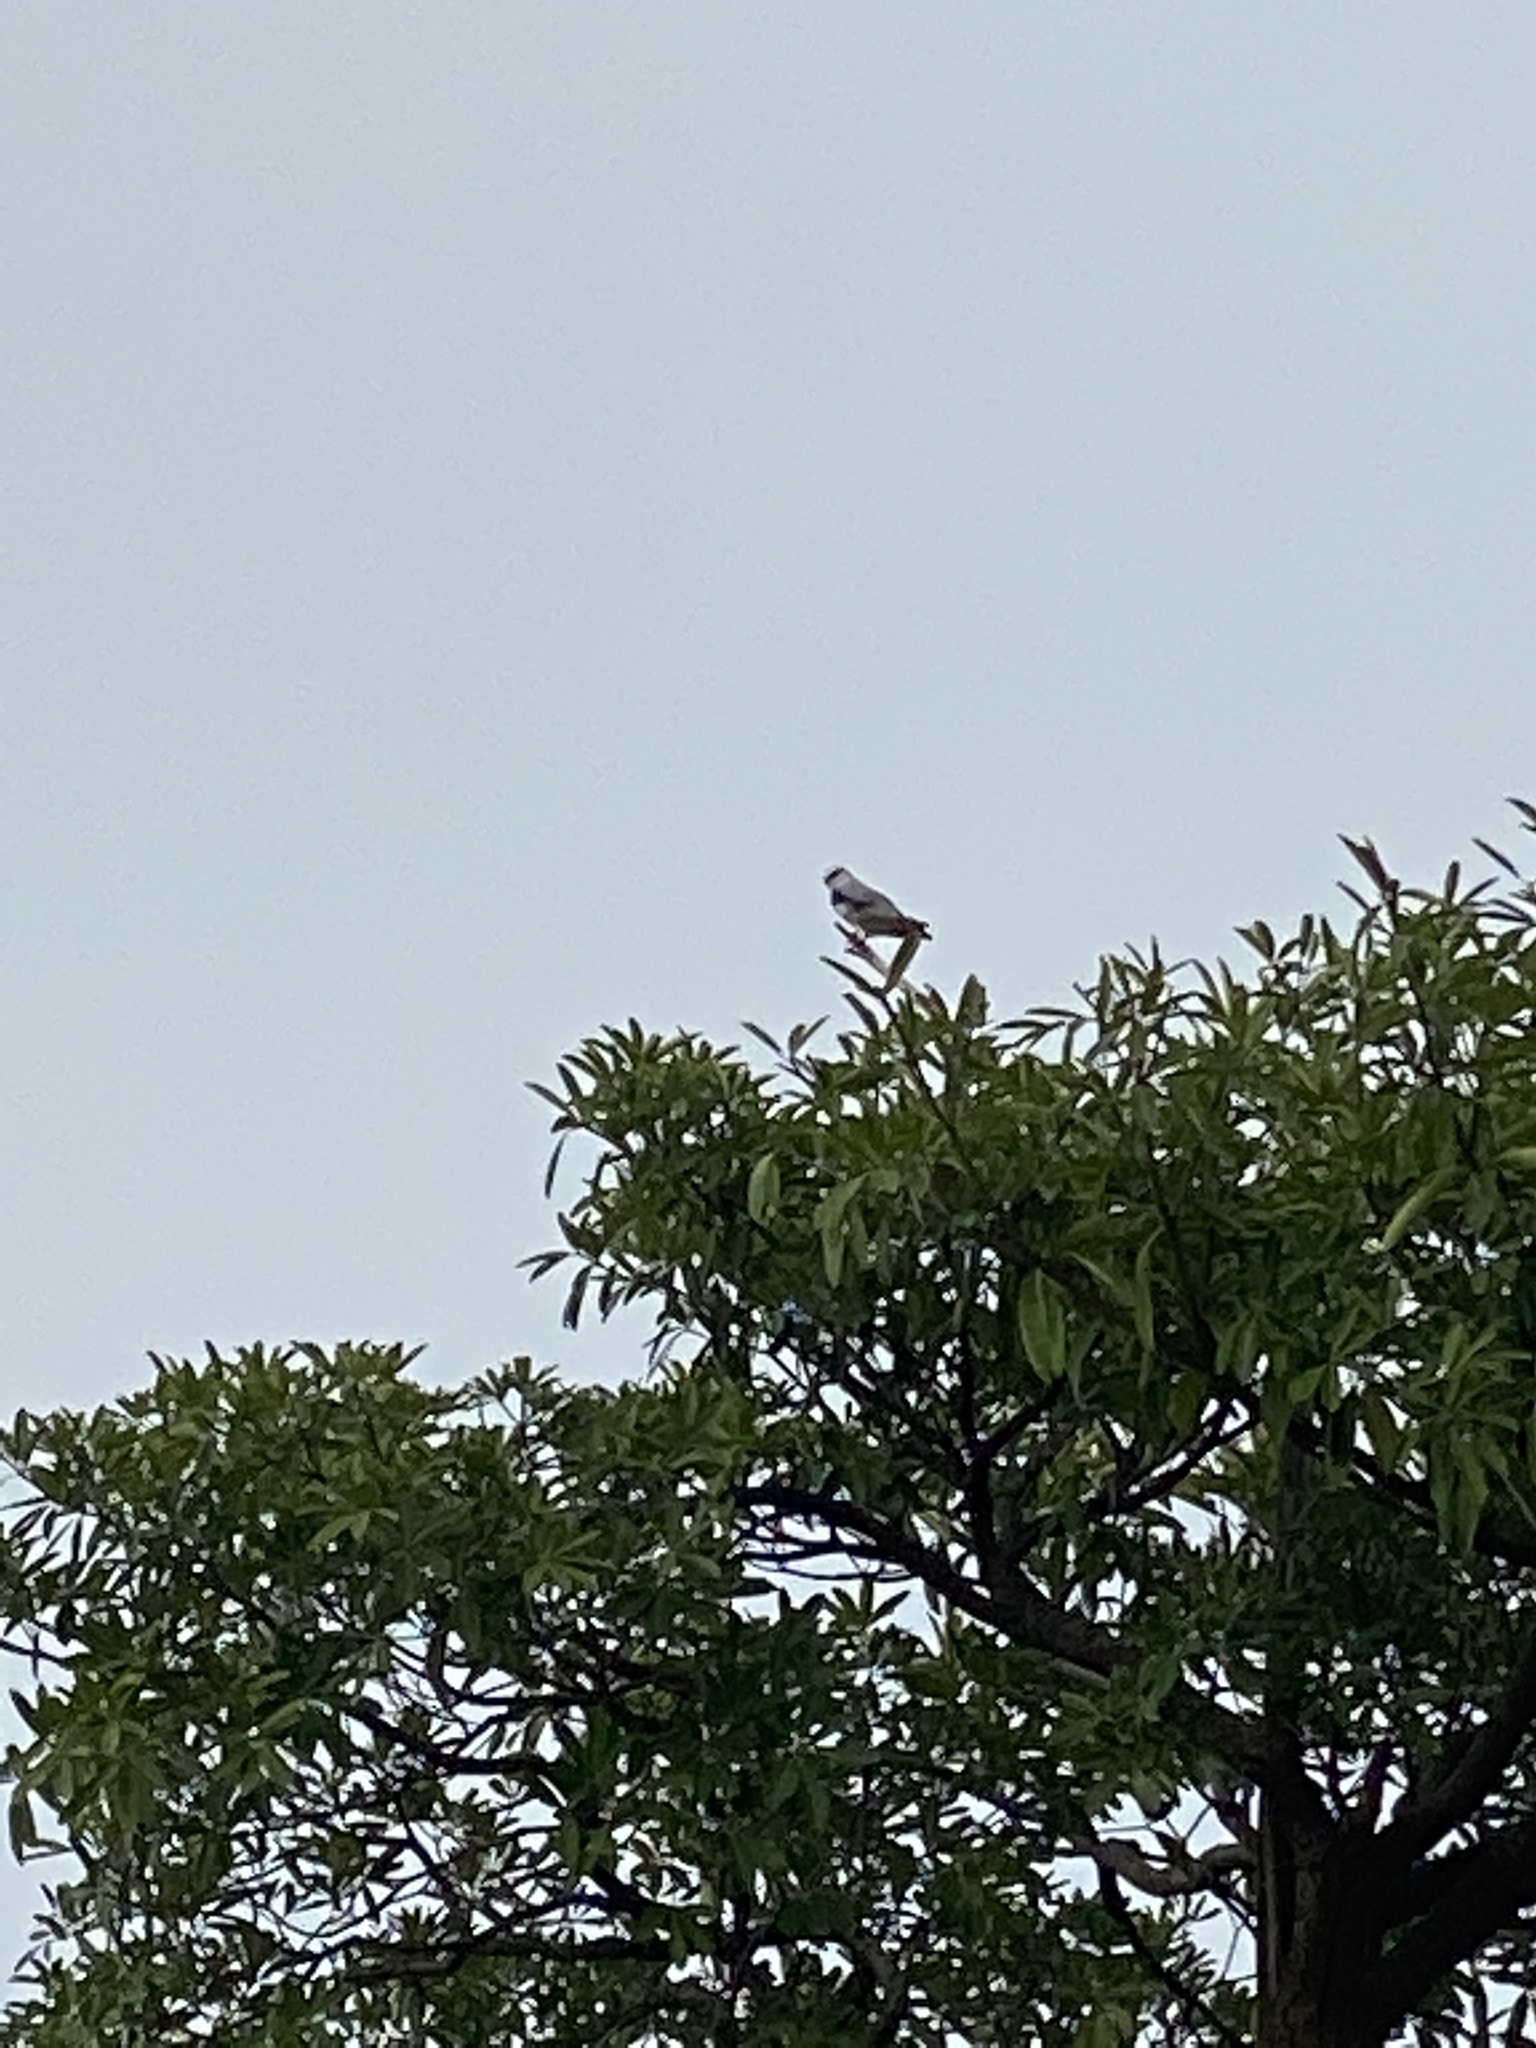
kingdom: Animalia
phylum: Chordata
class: Aves
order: Accipitriformes
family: Accipitridae
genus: Elanus
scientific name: Elanus caeruleus
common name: Black-winged kite
